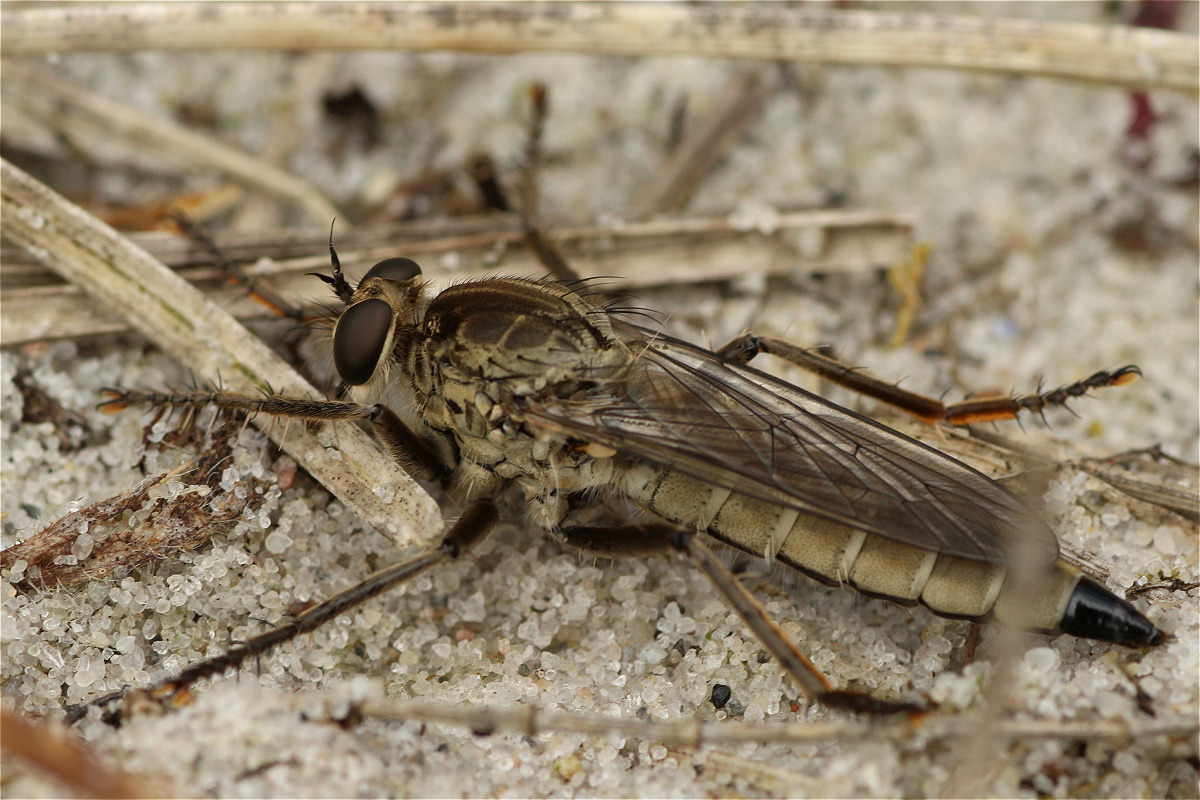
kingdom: Animalia
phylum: Arthropoda
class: Insecta
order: Diptera
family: Asilidae
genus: Philonicus
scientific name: Philonicus albiceps
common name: Dune robberfly
